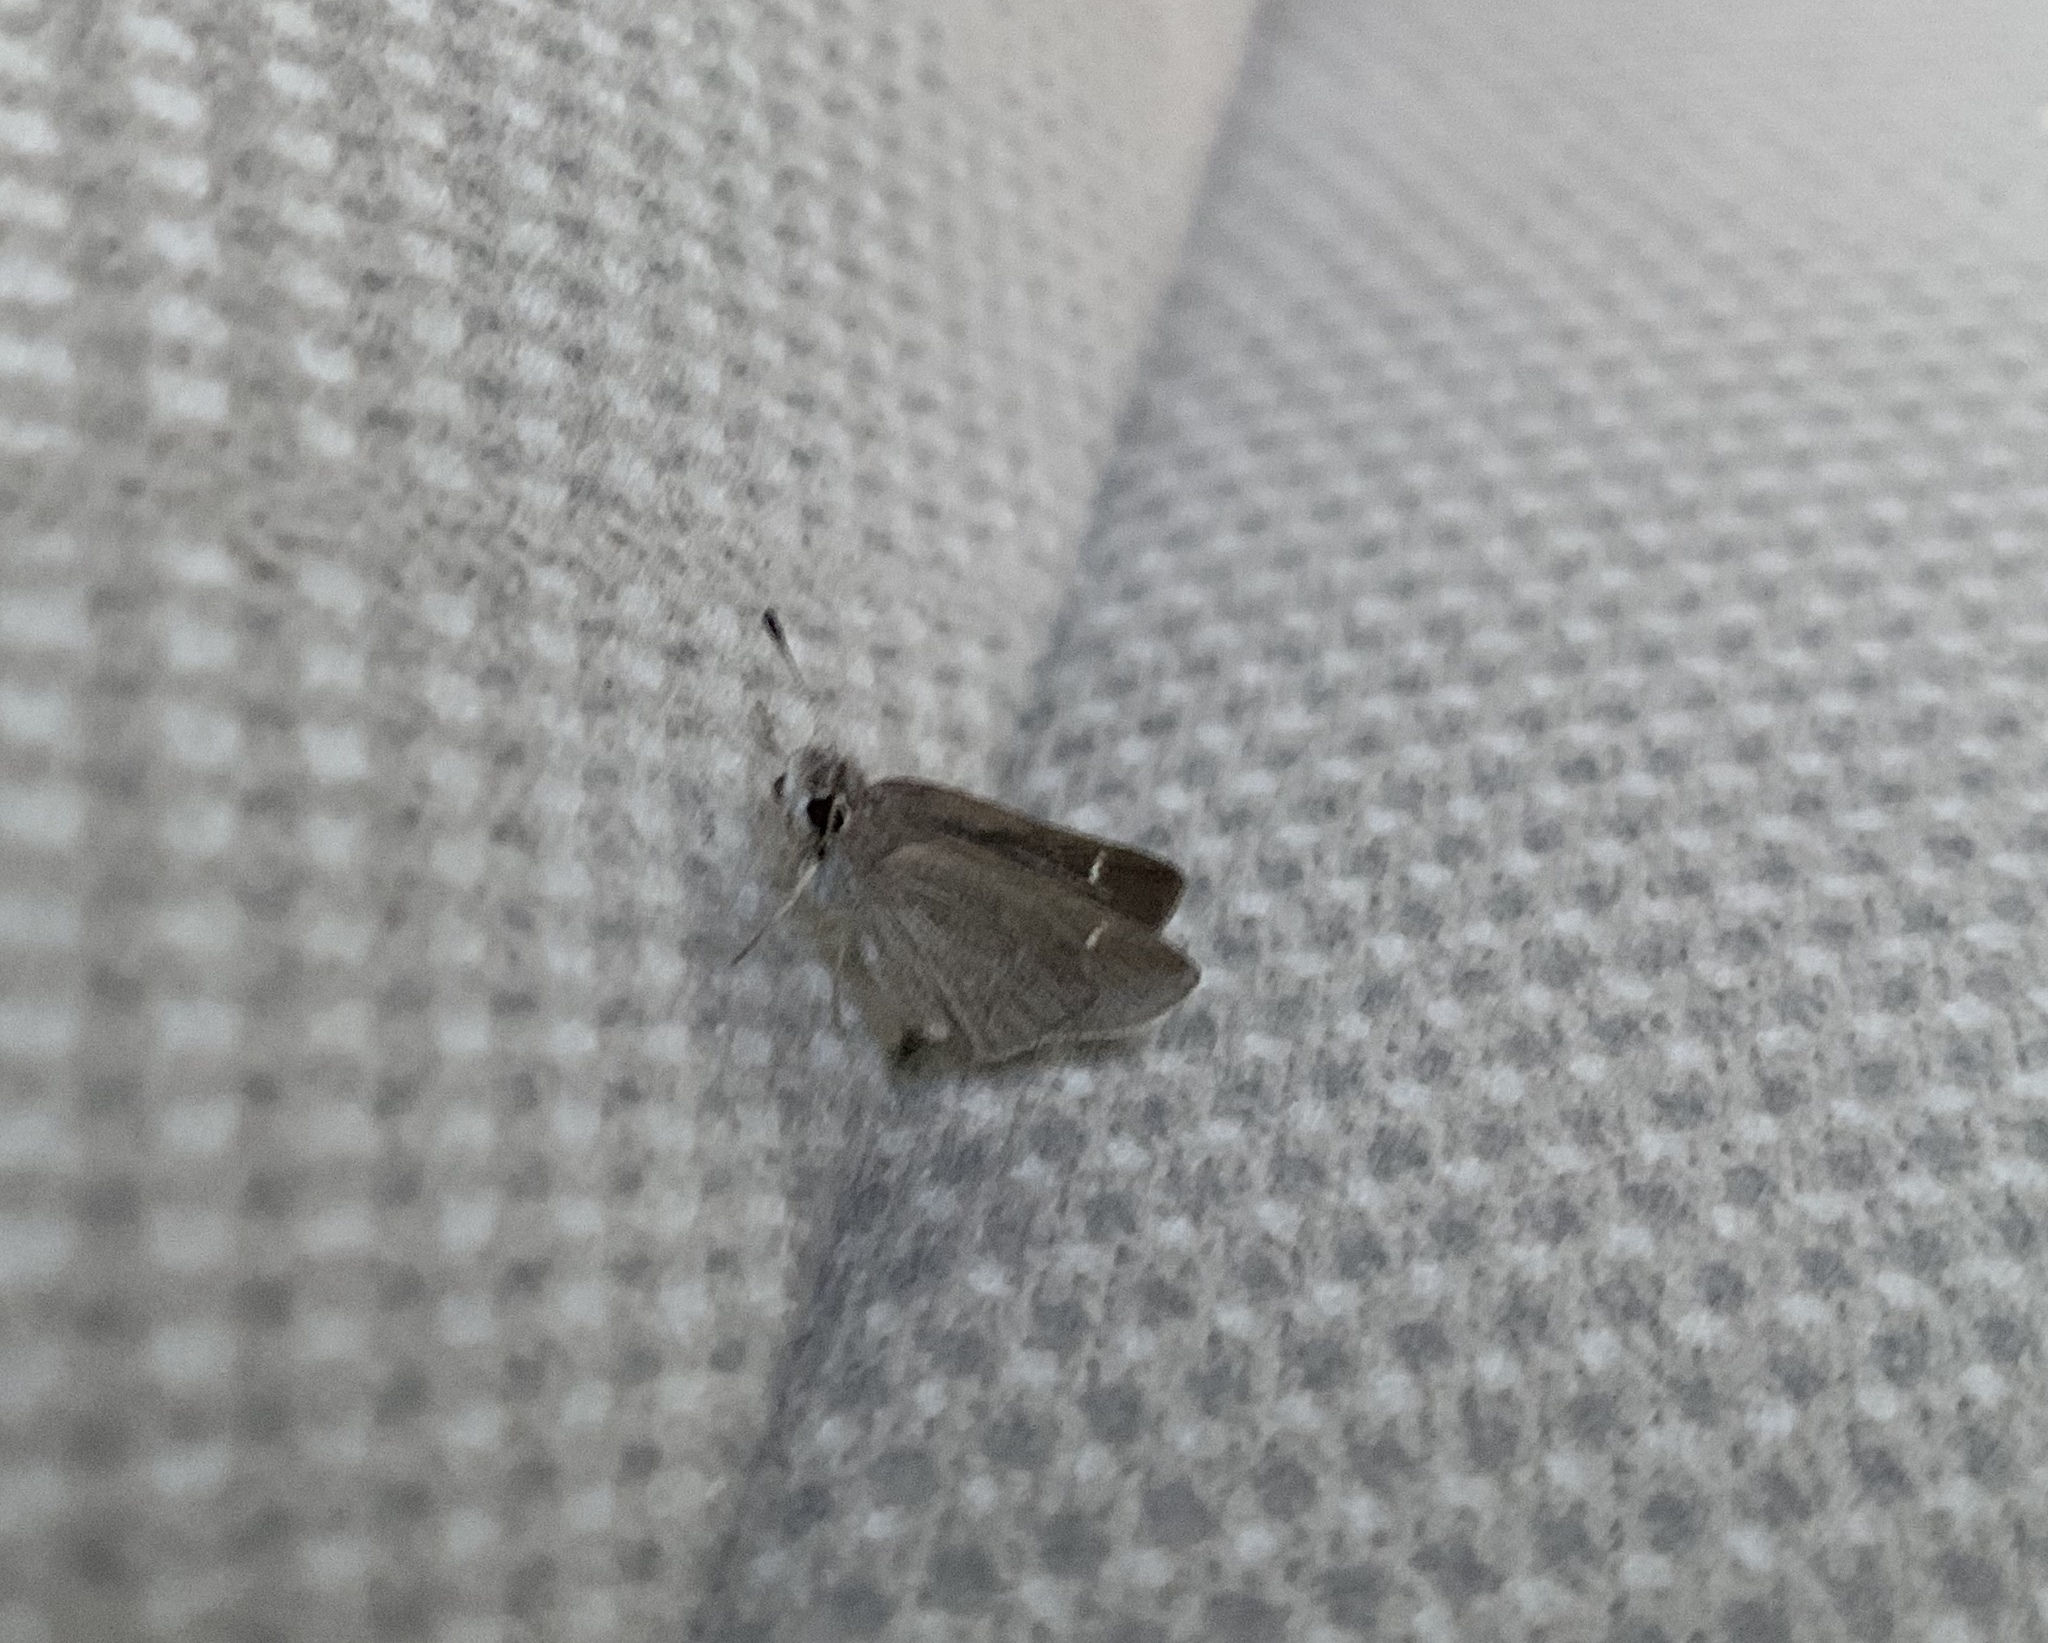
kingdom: Animalia
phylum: Arthropoda
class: Insecta
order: Lepidoptera
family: Hesperiidae
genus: Lerodea
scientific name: Lerodea eufala
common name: Eufala skipper
